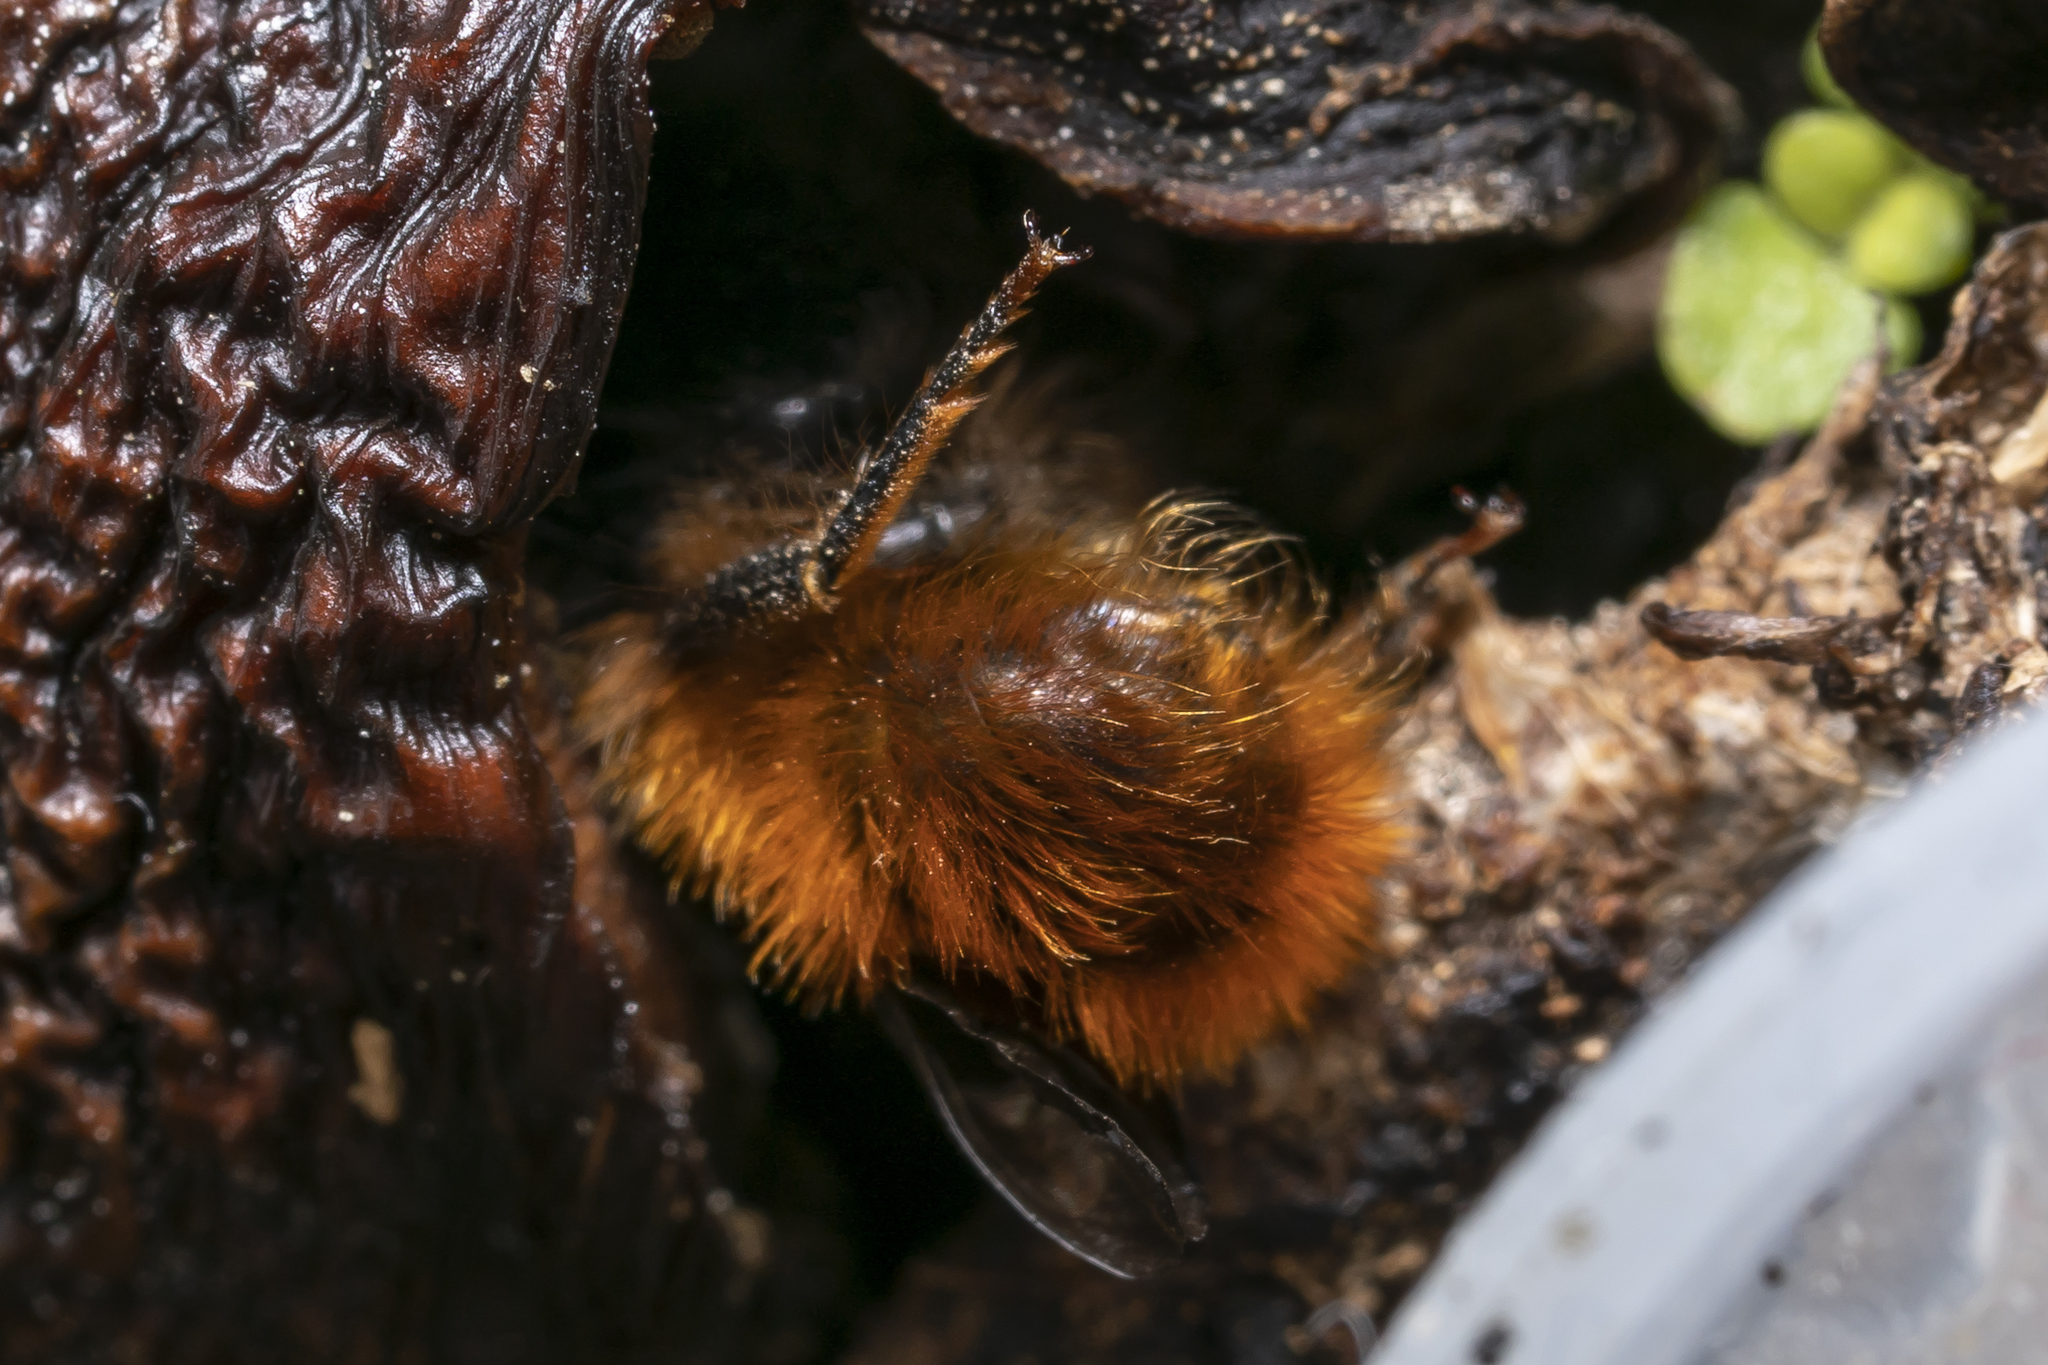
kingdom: Animalia
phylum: Arthropoda
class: Insecta
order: Hymenoptera
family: Megachilidae
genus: Osmia
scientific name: Osmia cornuta
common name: Mason bee
